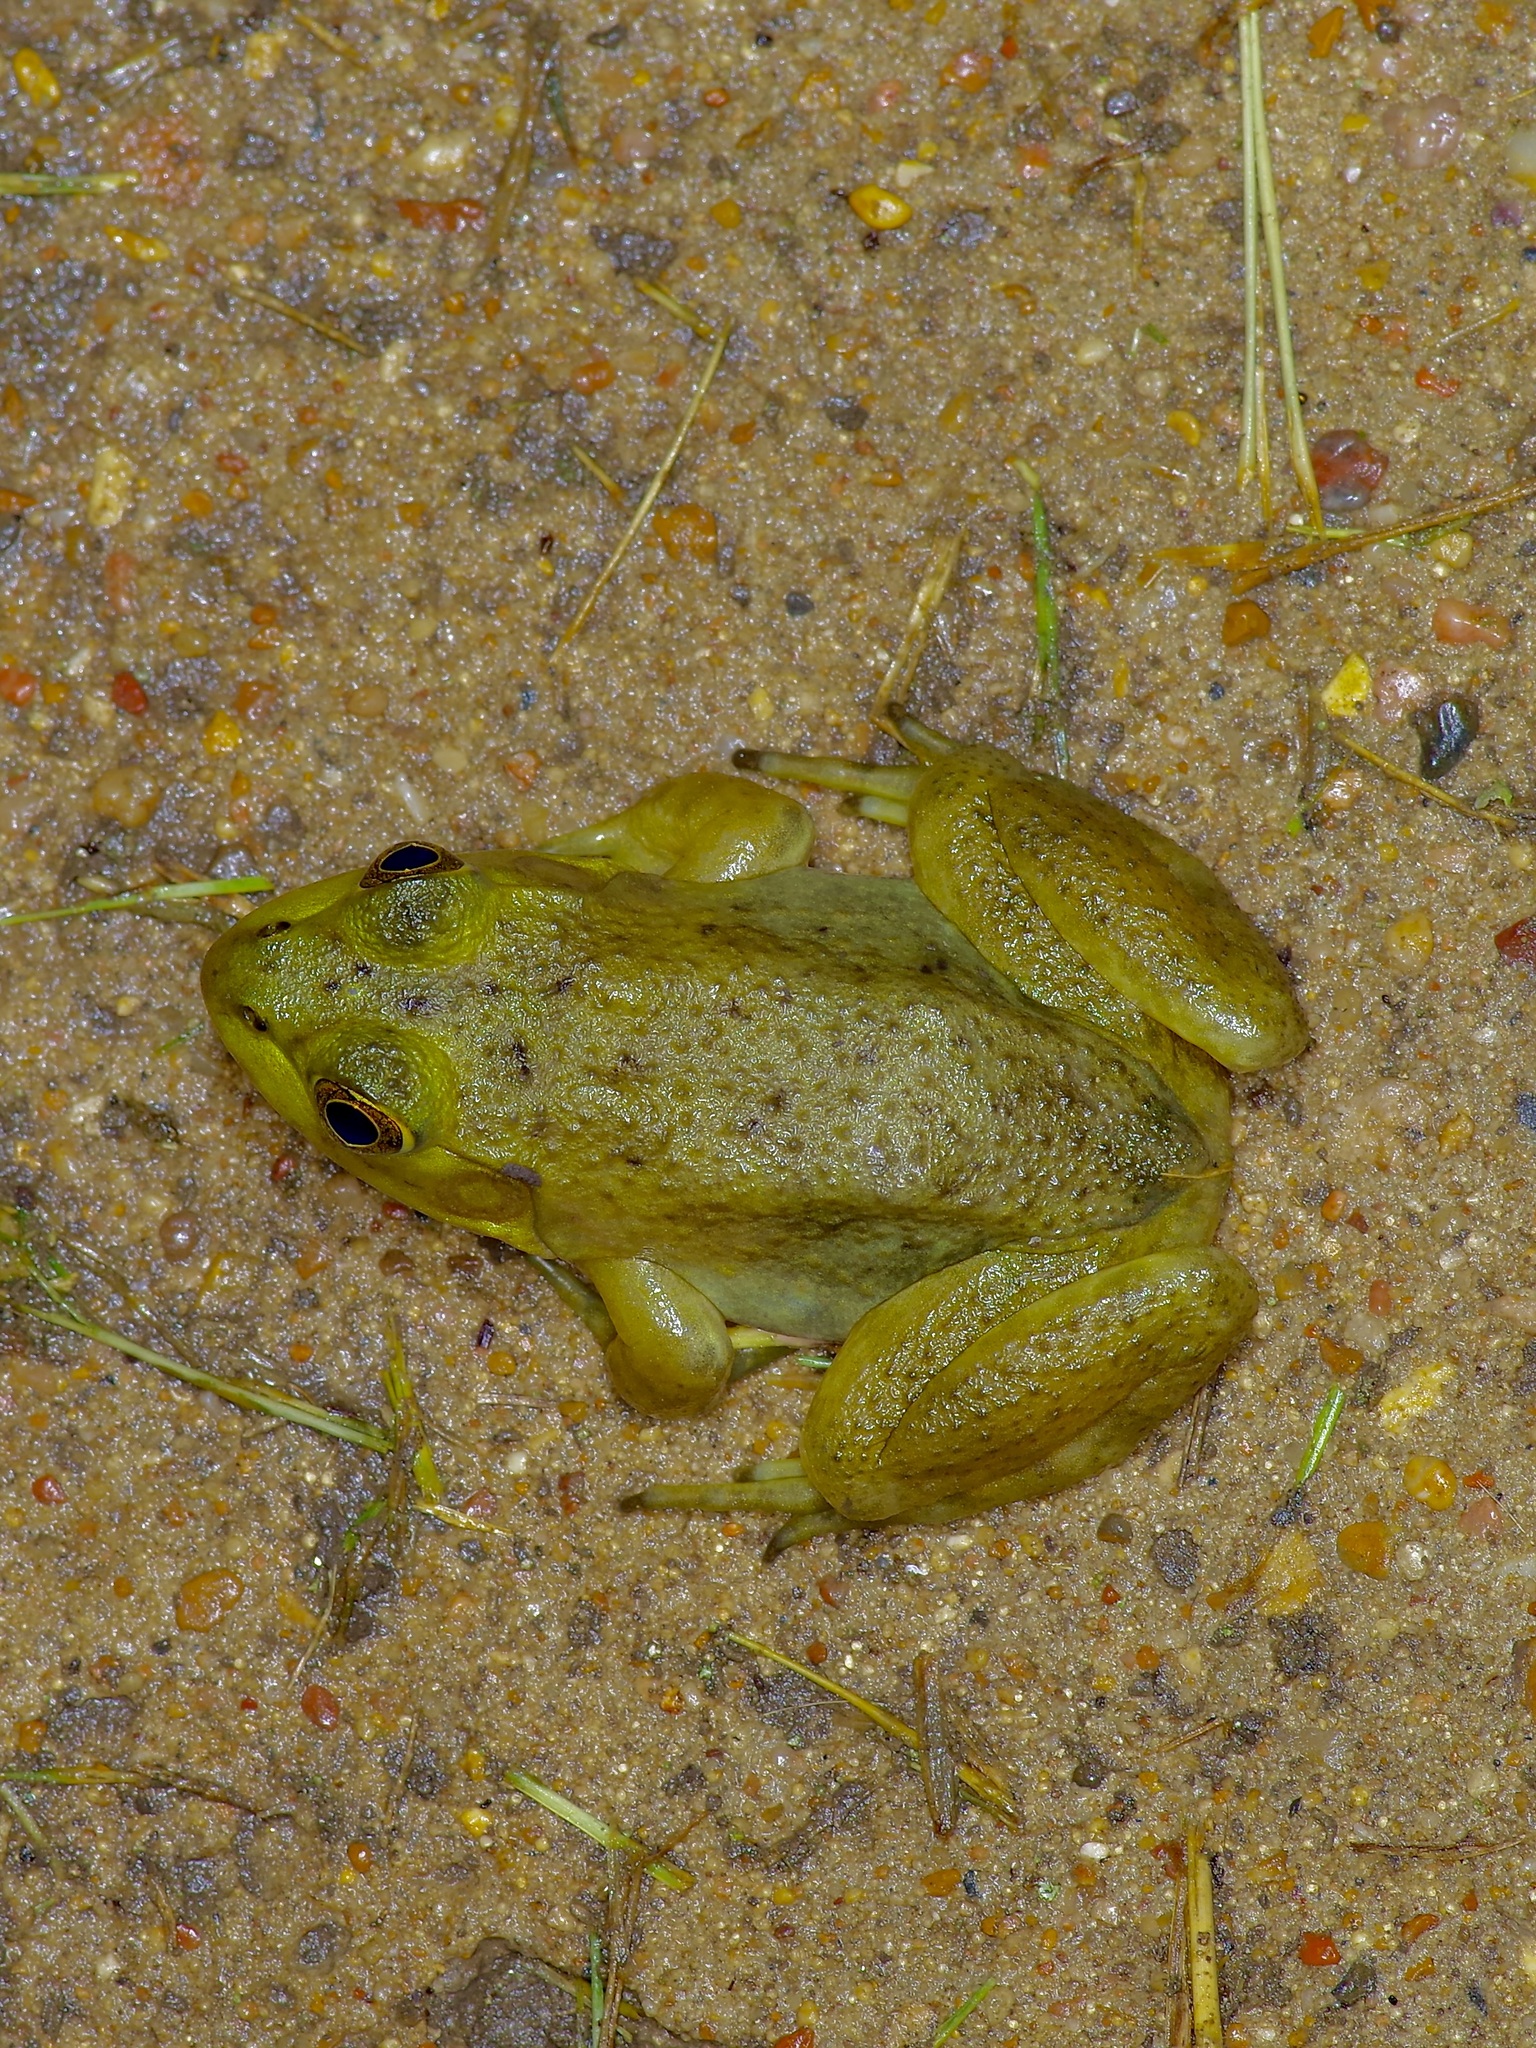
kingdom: Animalia
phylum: Chordata
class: Amphibia
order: Anura
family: Ranidae
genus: Lithobates
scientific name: Lithobates catesbeianus
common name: American bullfrog
